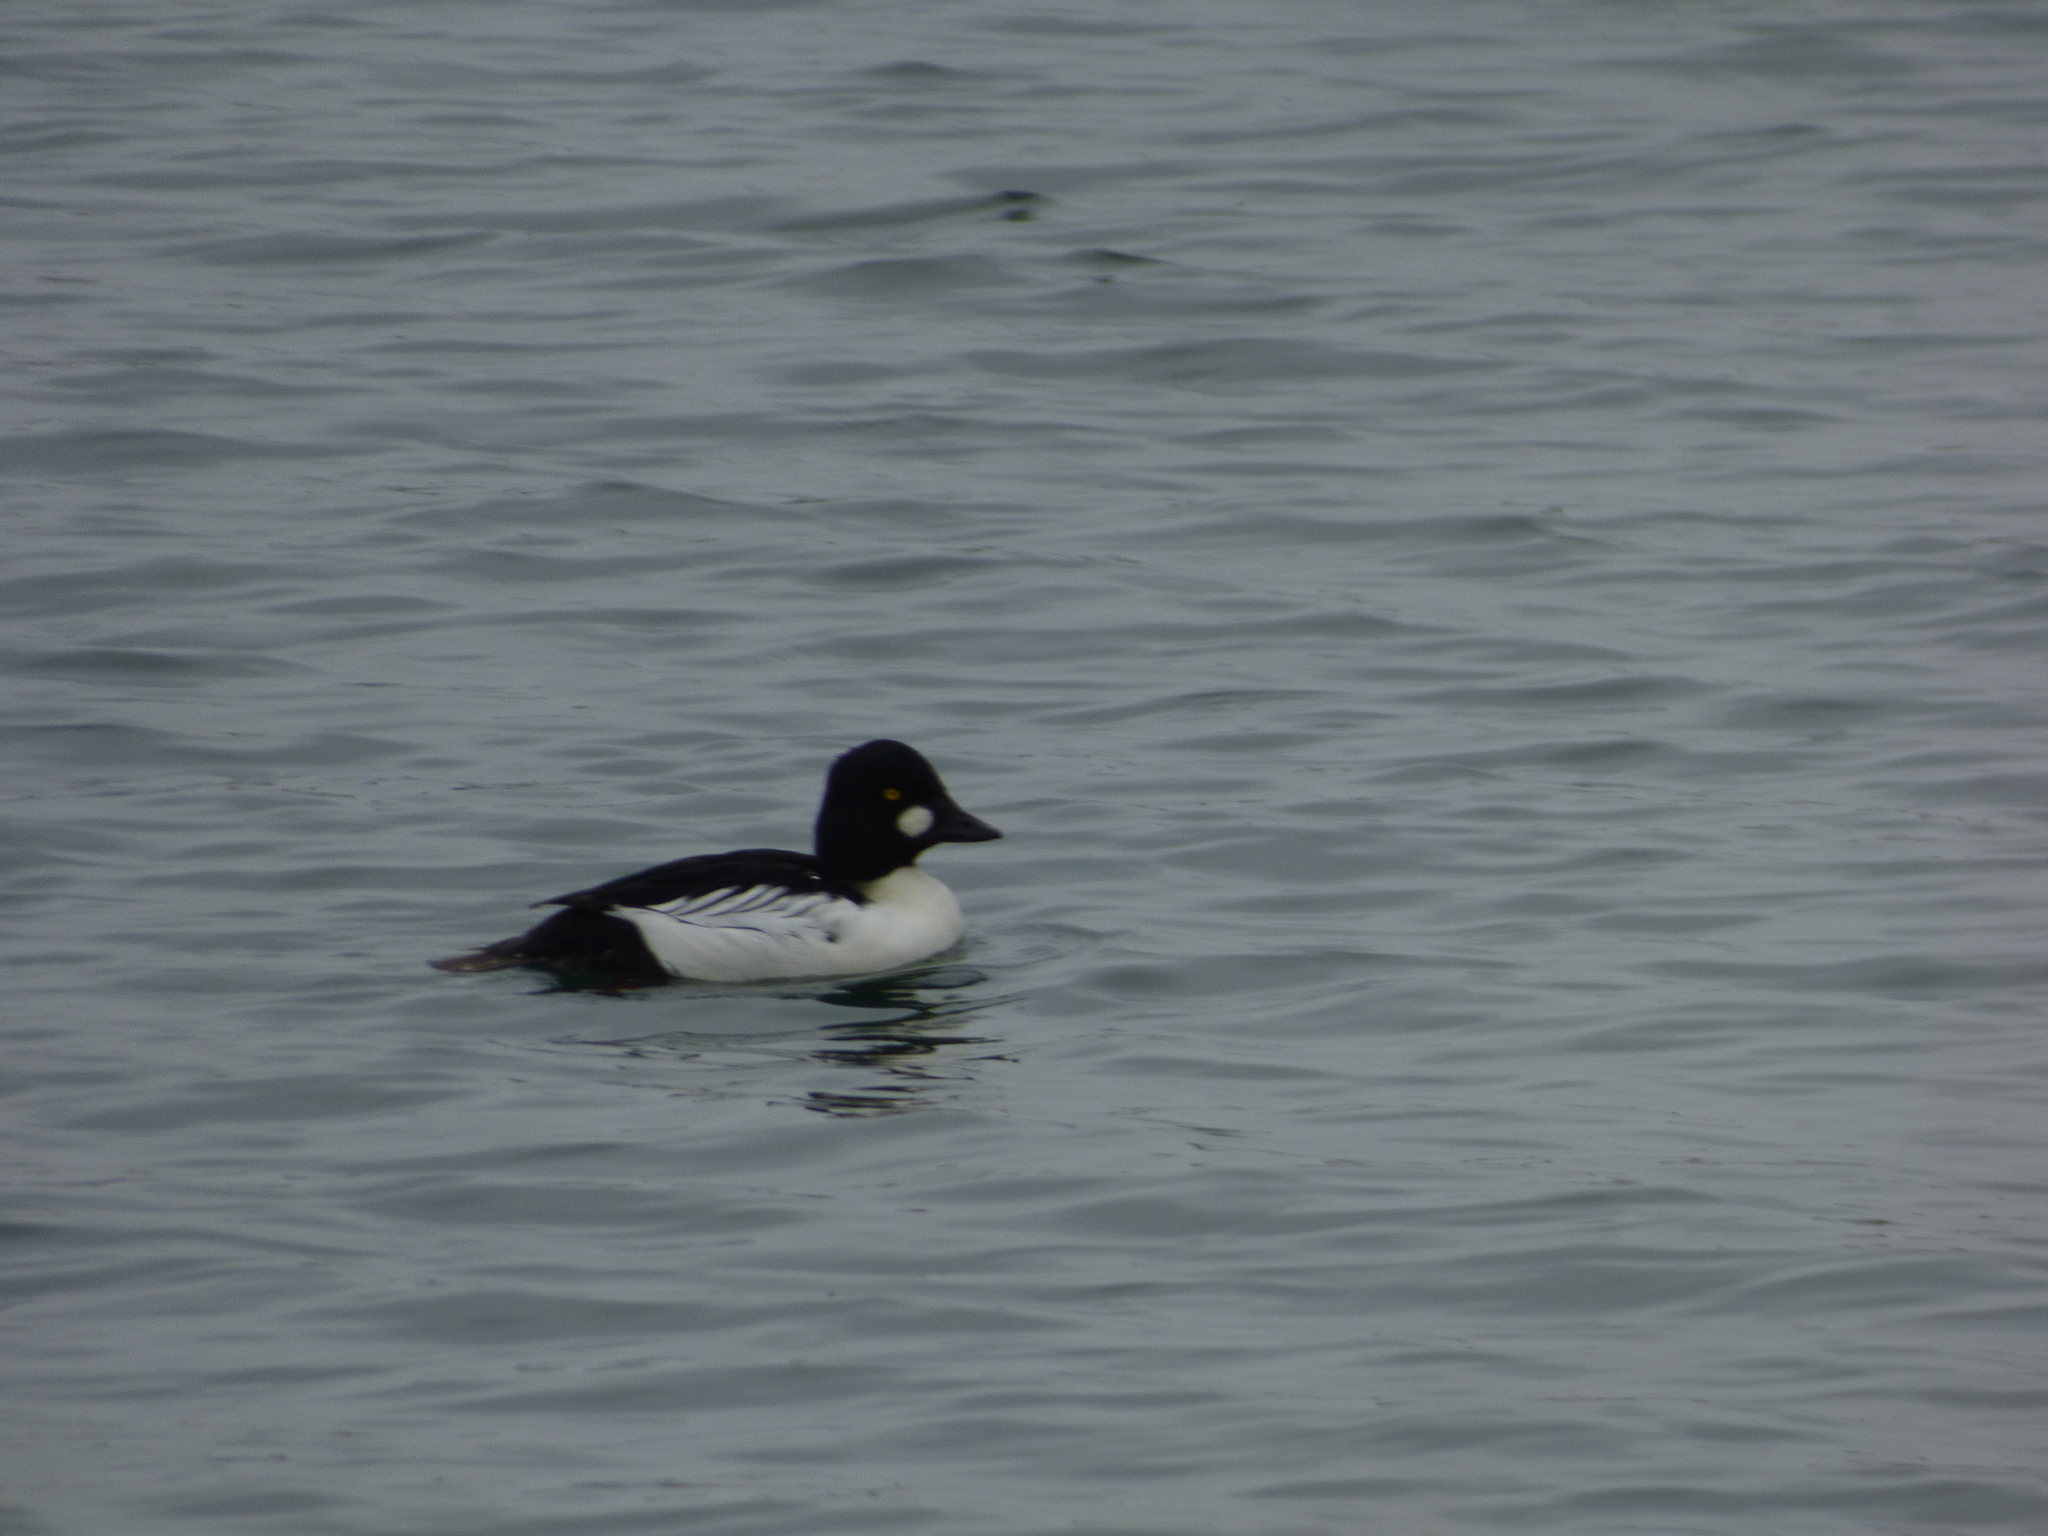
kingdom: Animalia
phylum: Chordata
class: Aves
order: Anseriformes
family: Anatidae
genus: Bucephala
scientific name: Bucephala clangula
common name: Common goldeneye
